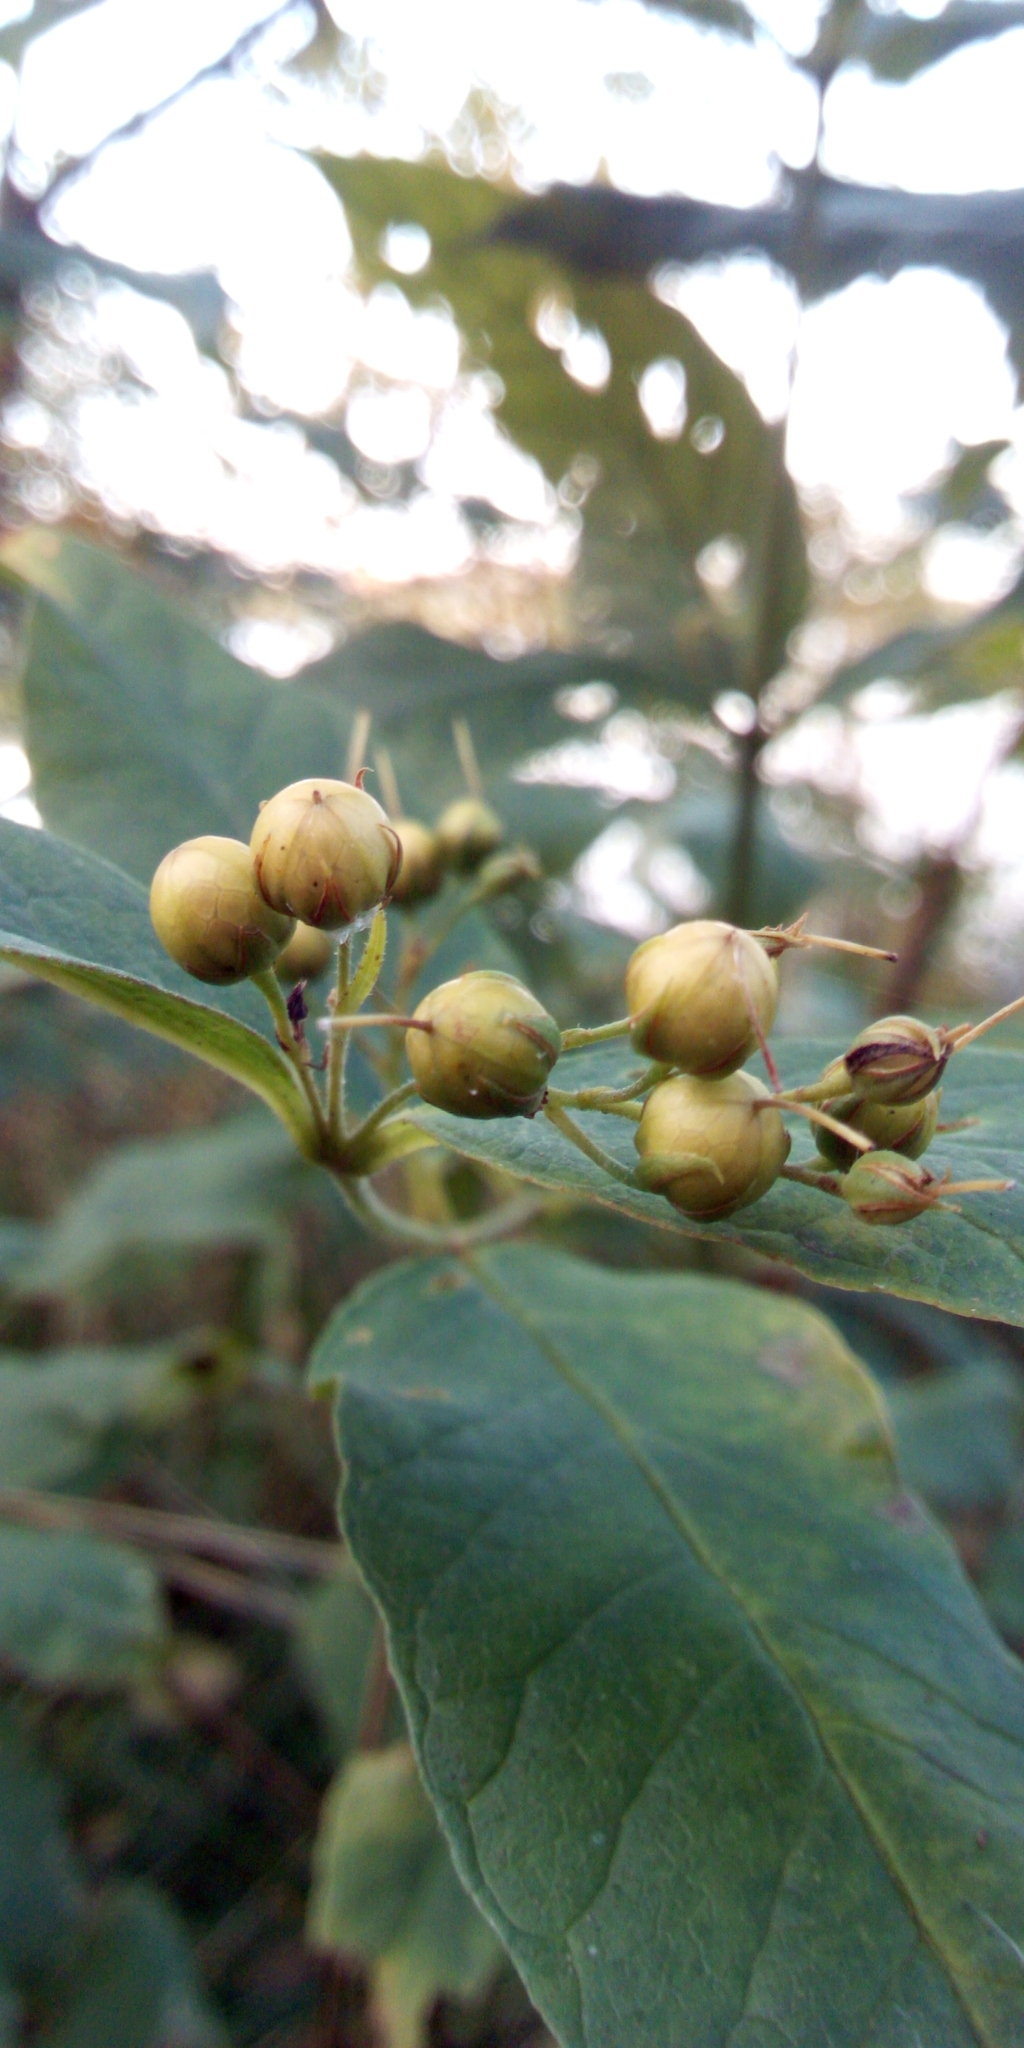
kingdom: Plantae
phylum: Tracheophyta
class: Magnoliopsida
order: Ericales
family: Primulaceae
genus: Lysimachia
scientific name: Lysimachia vulgaris
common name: Yellow loosestrife
